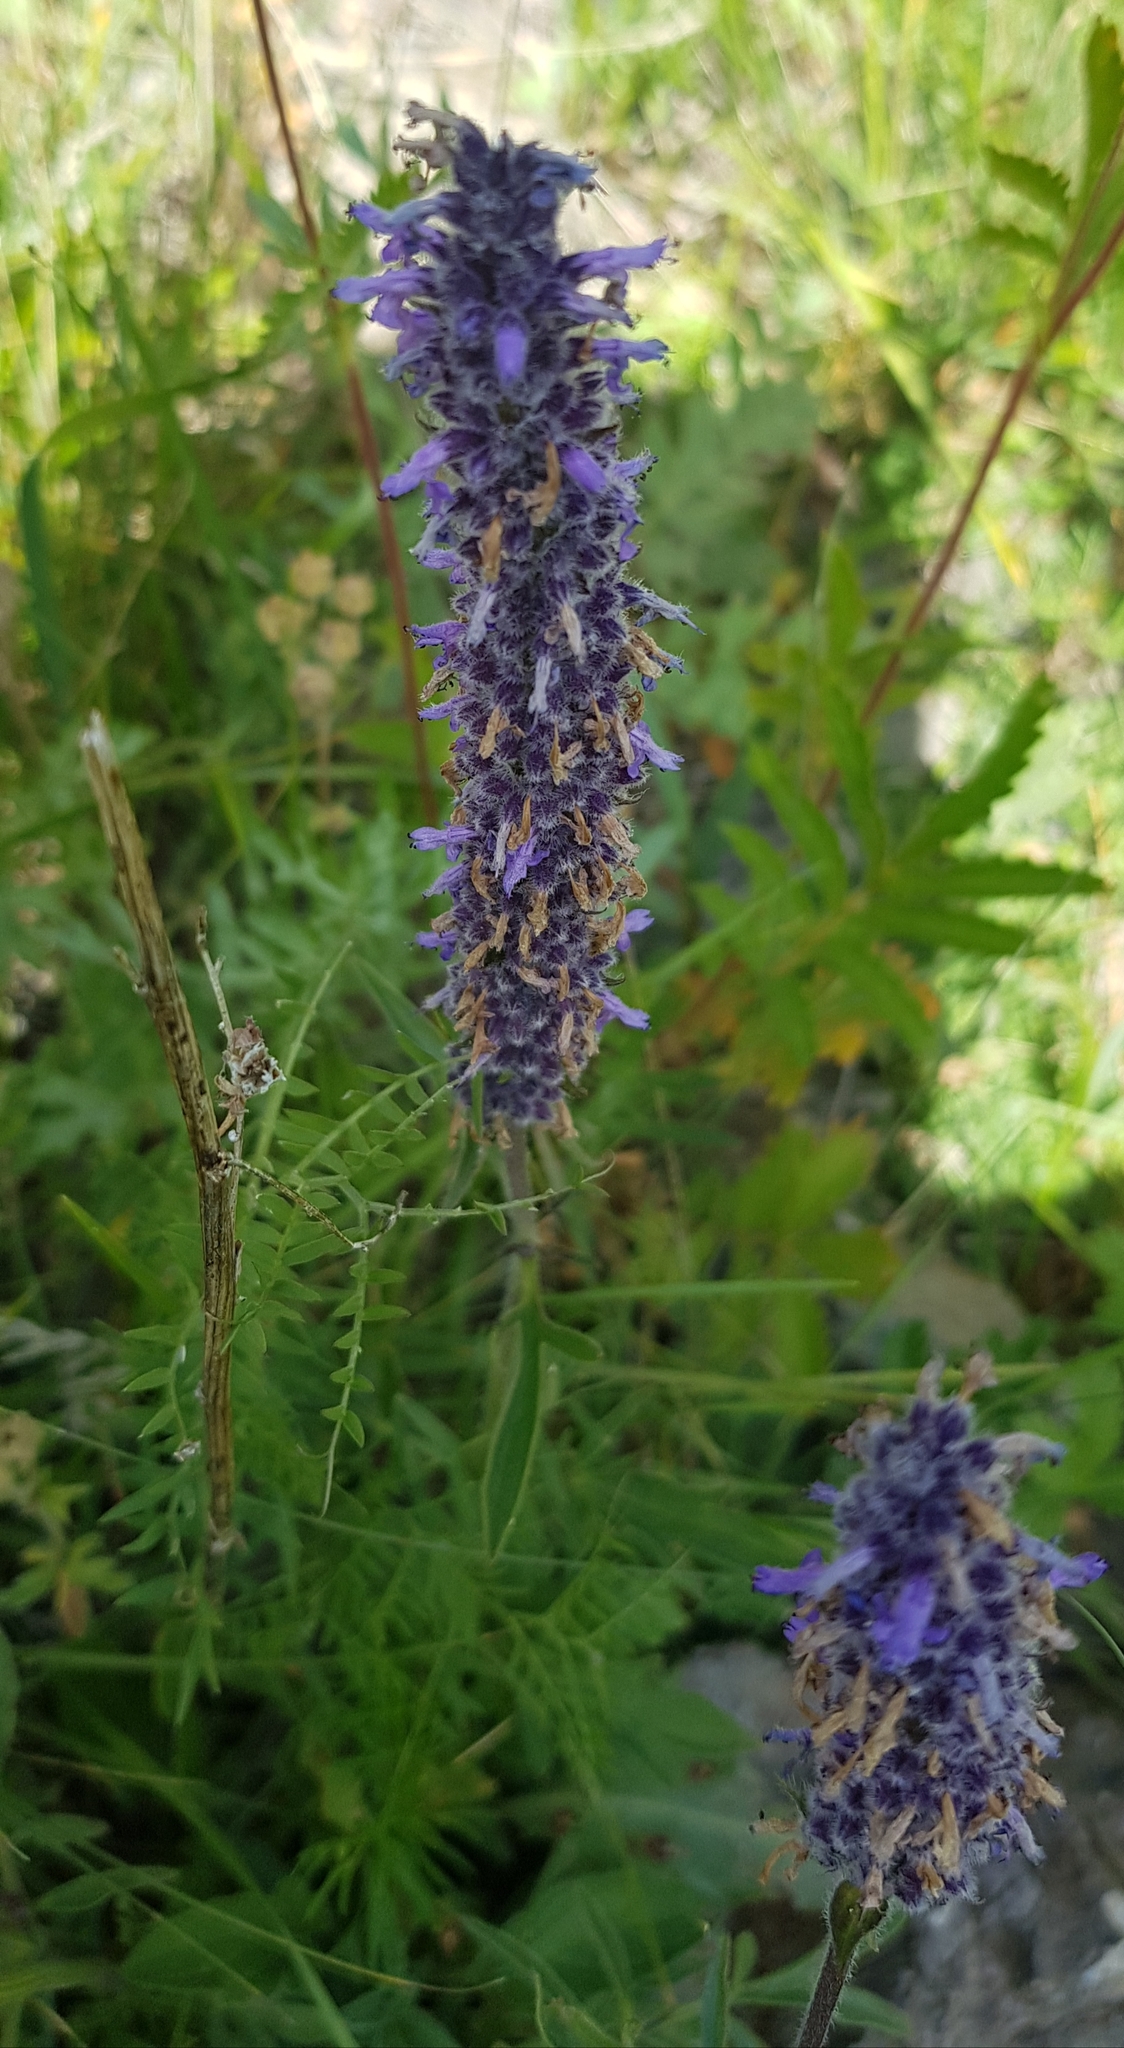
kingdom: Plantae
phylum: Tracheophyta
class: Magnoliopsida
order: Lamiales
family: Lamiaceae
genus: Nepeta
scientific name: Nepeta multifida
